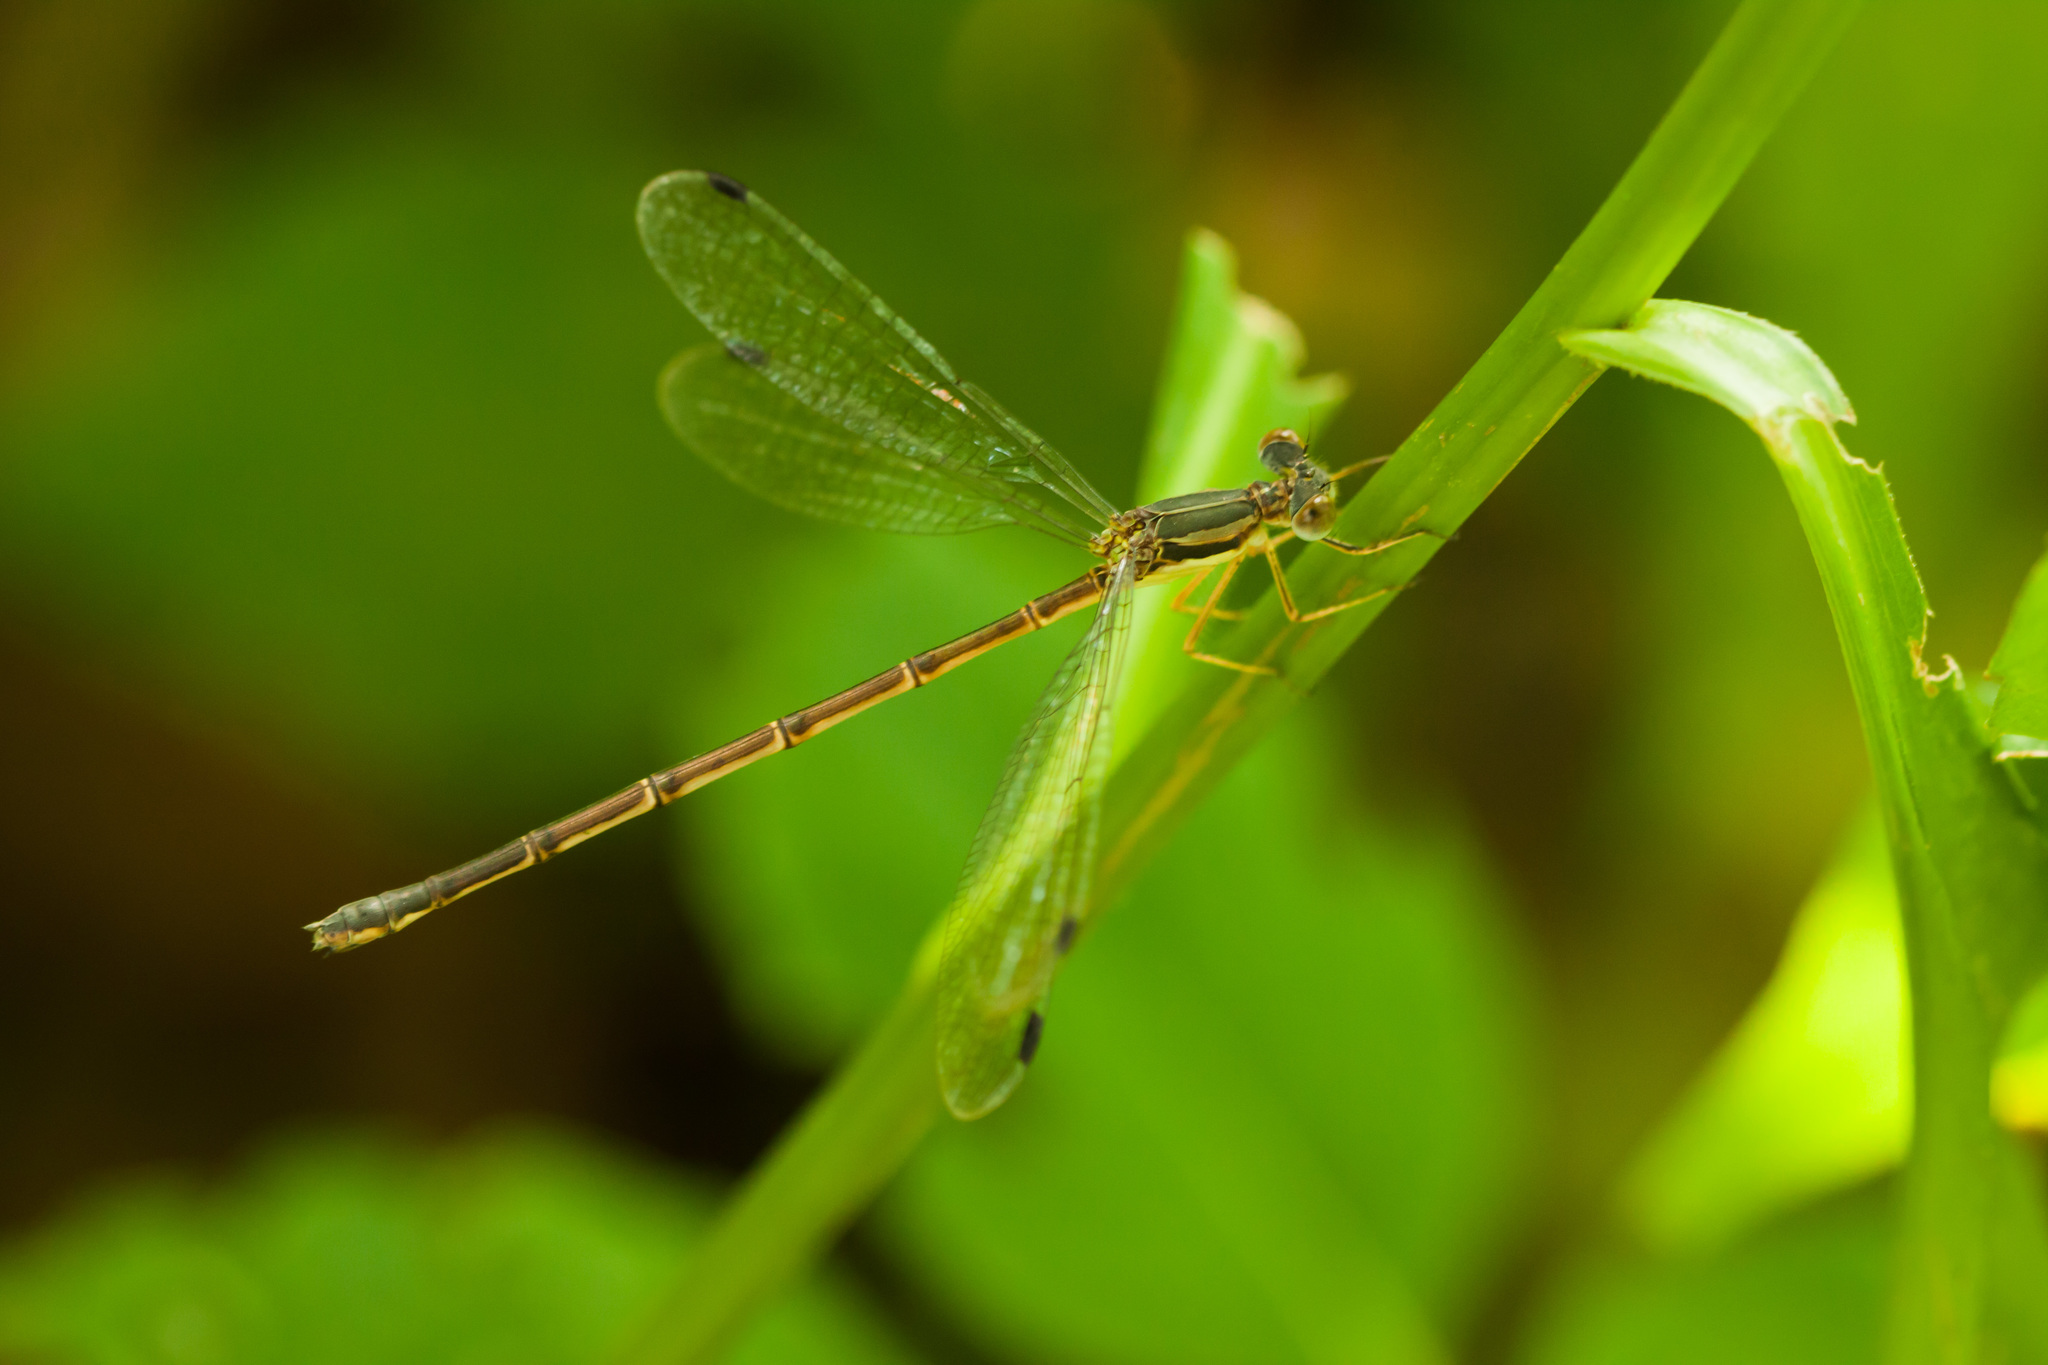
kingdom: Animalia
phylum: Arthropoda
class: Insecta
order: Odonata
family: Lestidae
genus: Lestes
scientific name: Lestes rectangularis
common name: Slender spreadwing
